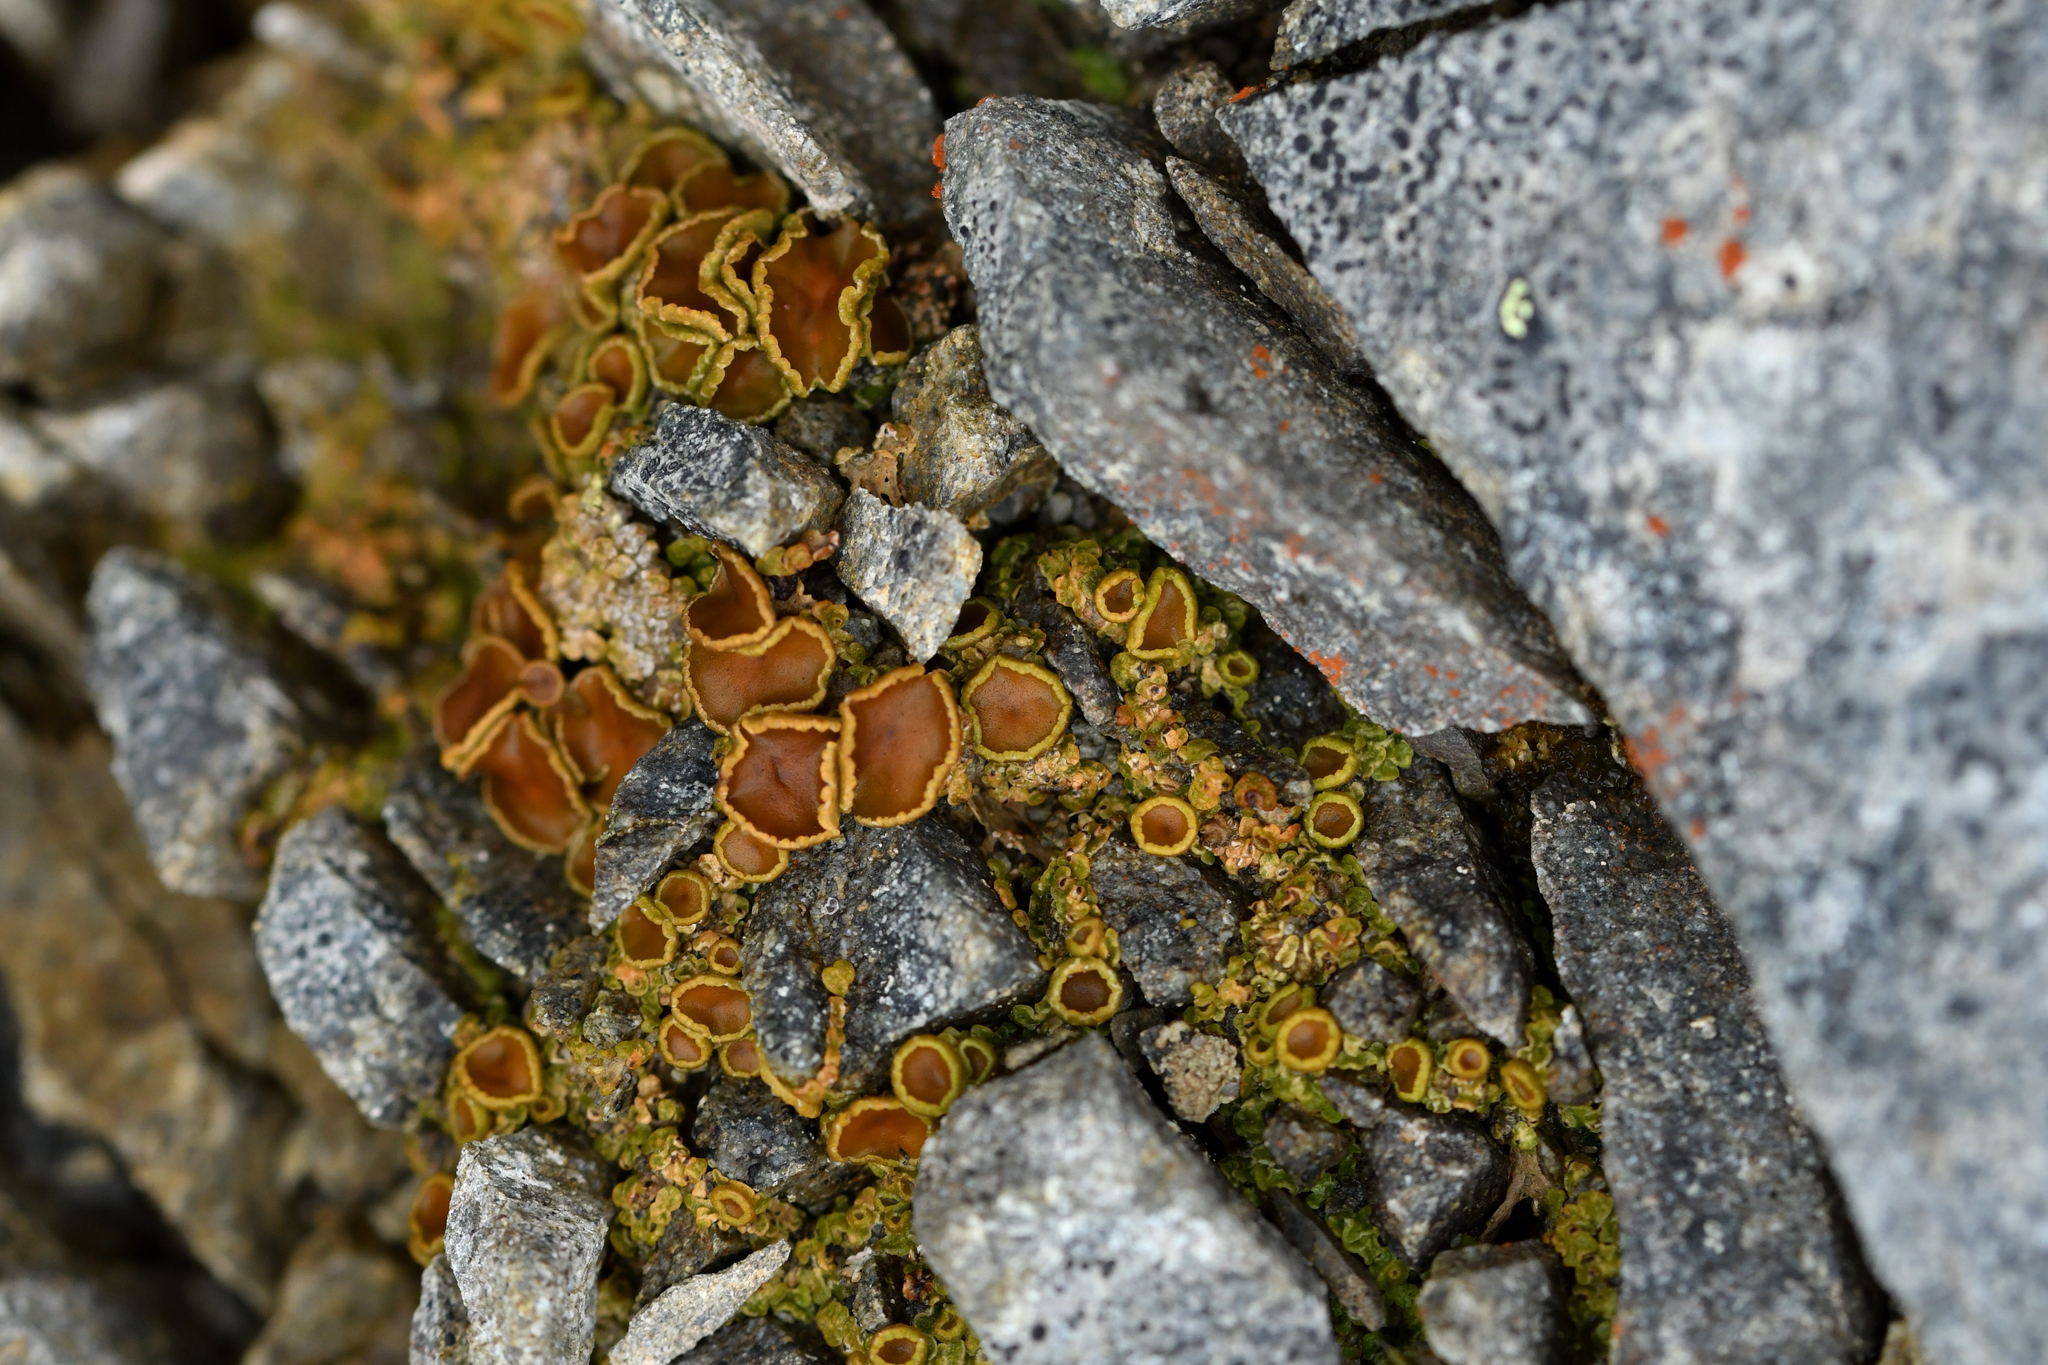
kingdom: Fungi
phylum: Ascomycota
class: Lecanoromycetes
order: Peltigerales
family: Pannariaceae
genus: Psoroma
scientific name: Psoroma inflatum
